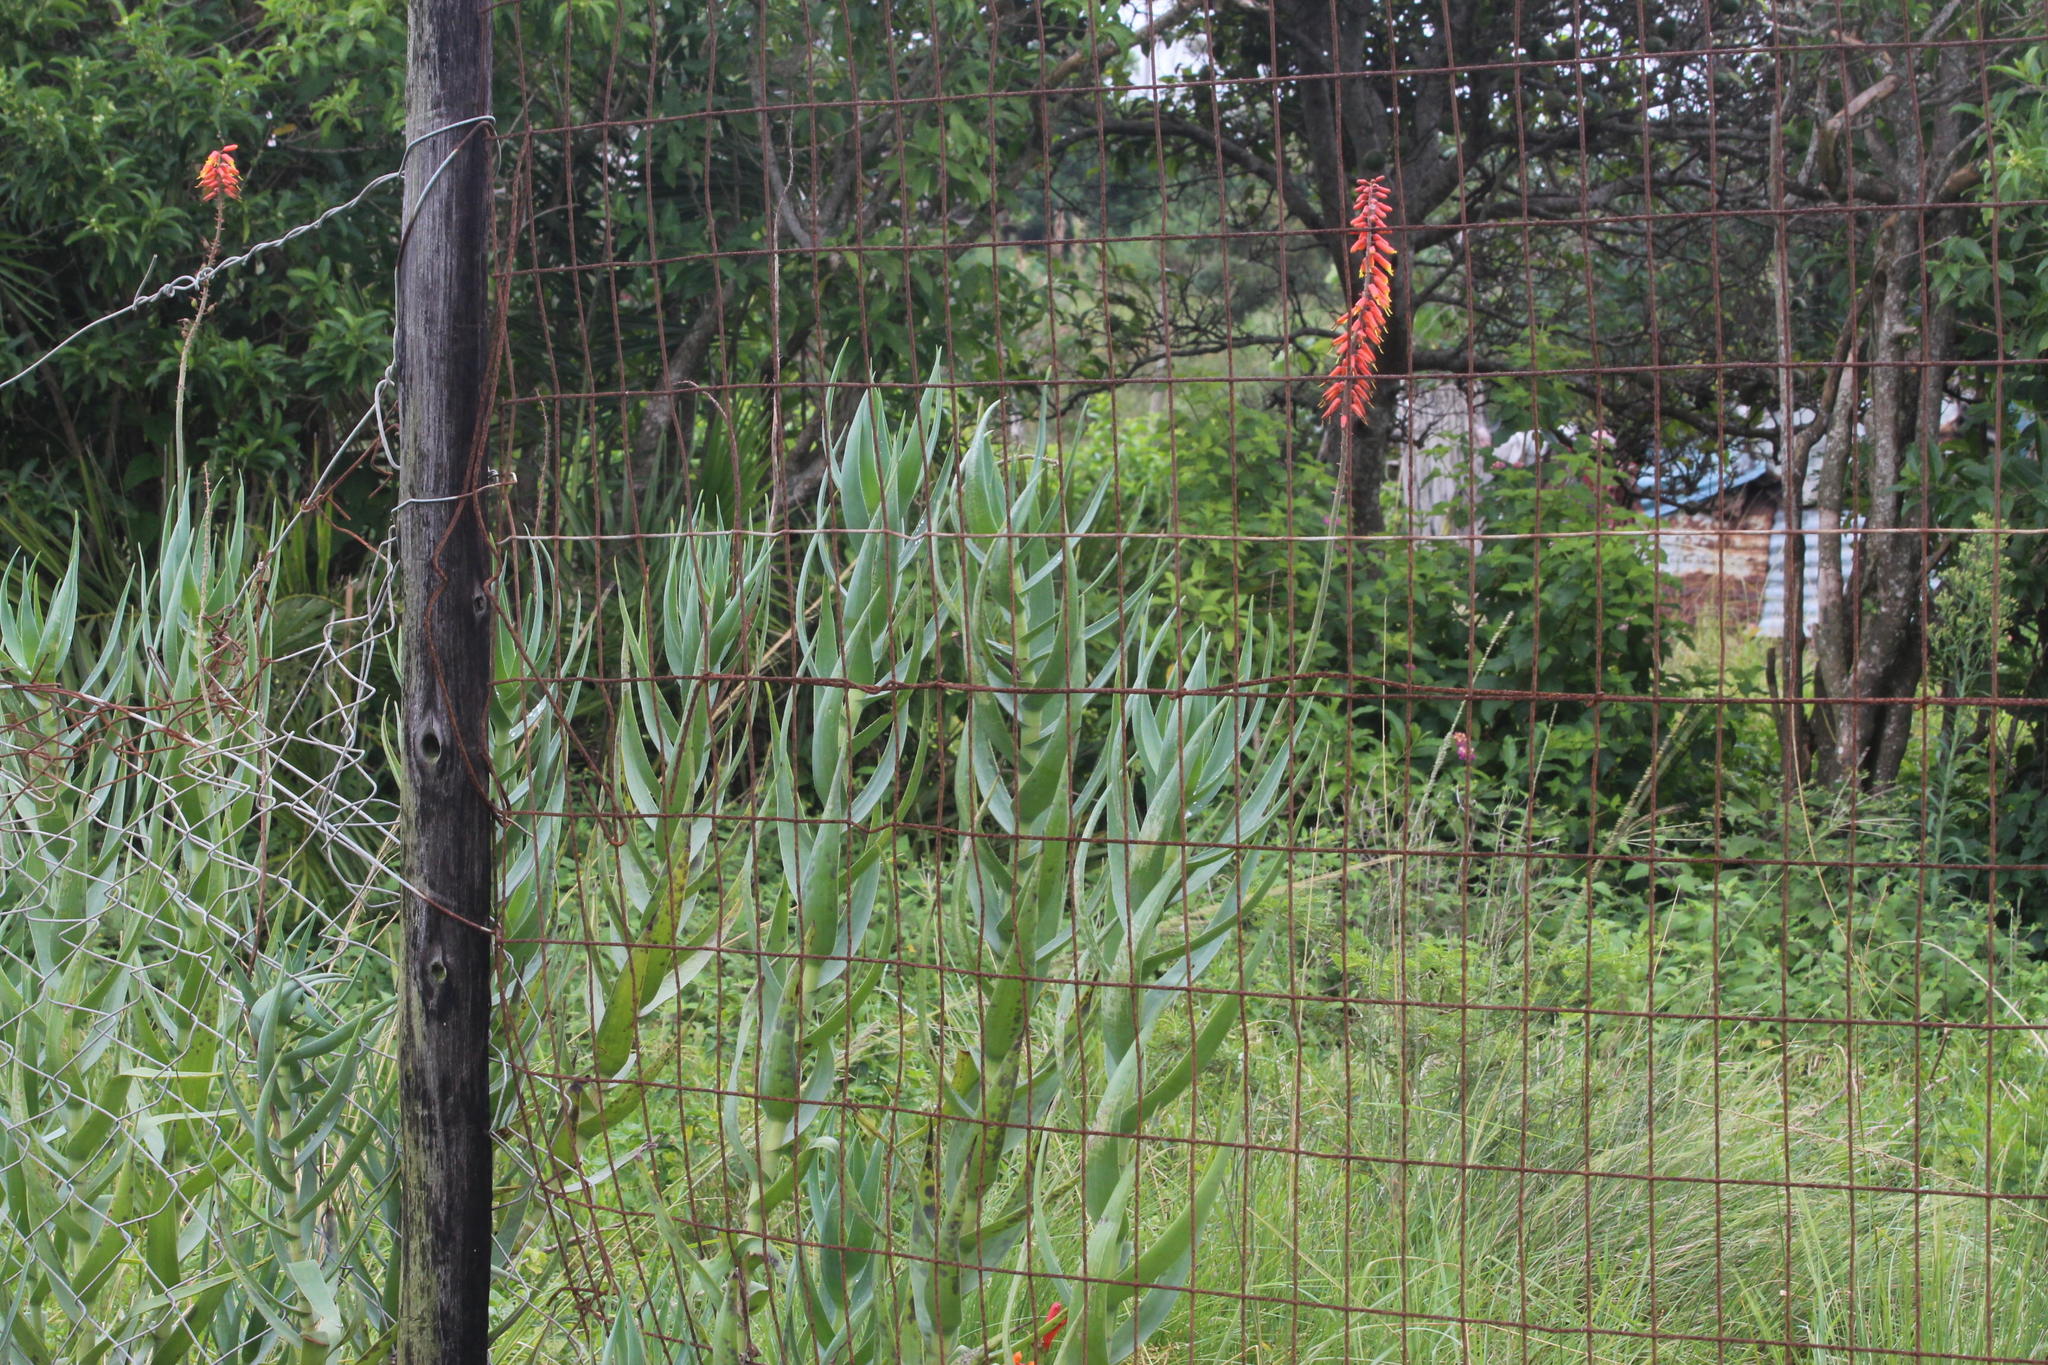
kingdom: Plantae
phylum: Tracheophyta
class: Liliopsida
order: Asparagales
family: Asphodelaceae
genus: Aloiampelos
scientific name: Aloiampelos tenuior
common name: Fence aloe
